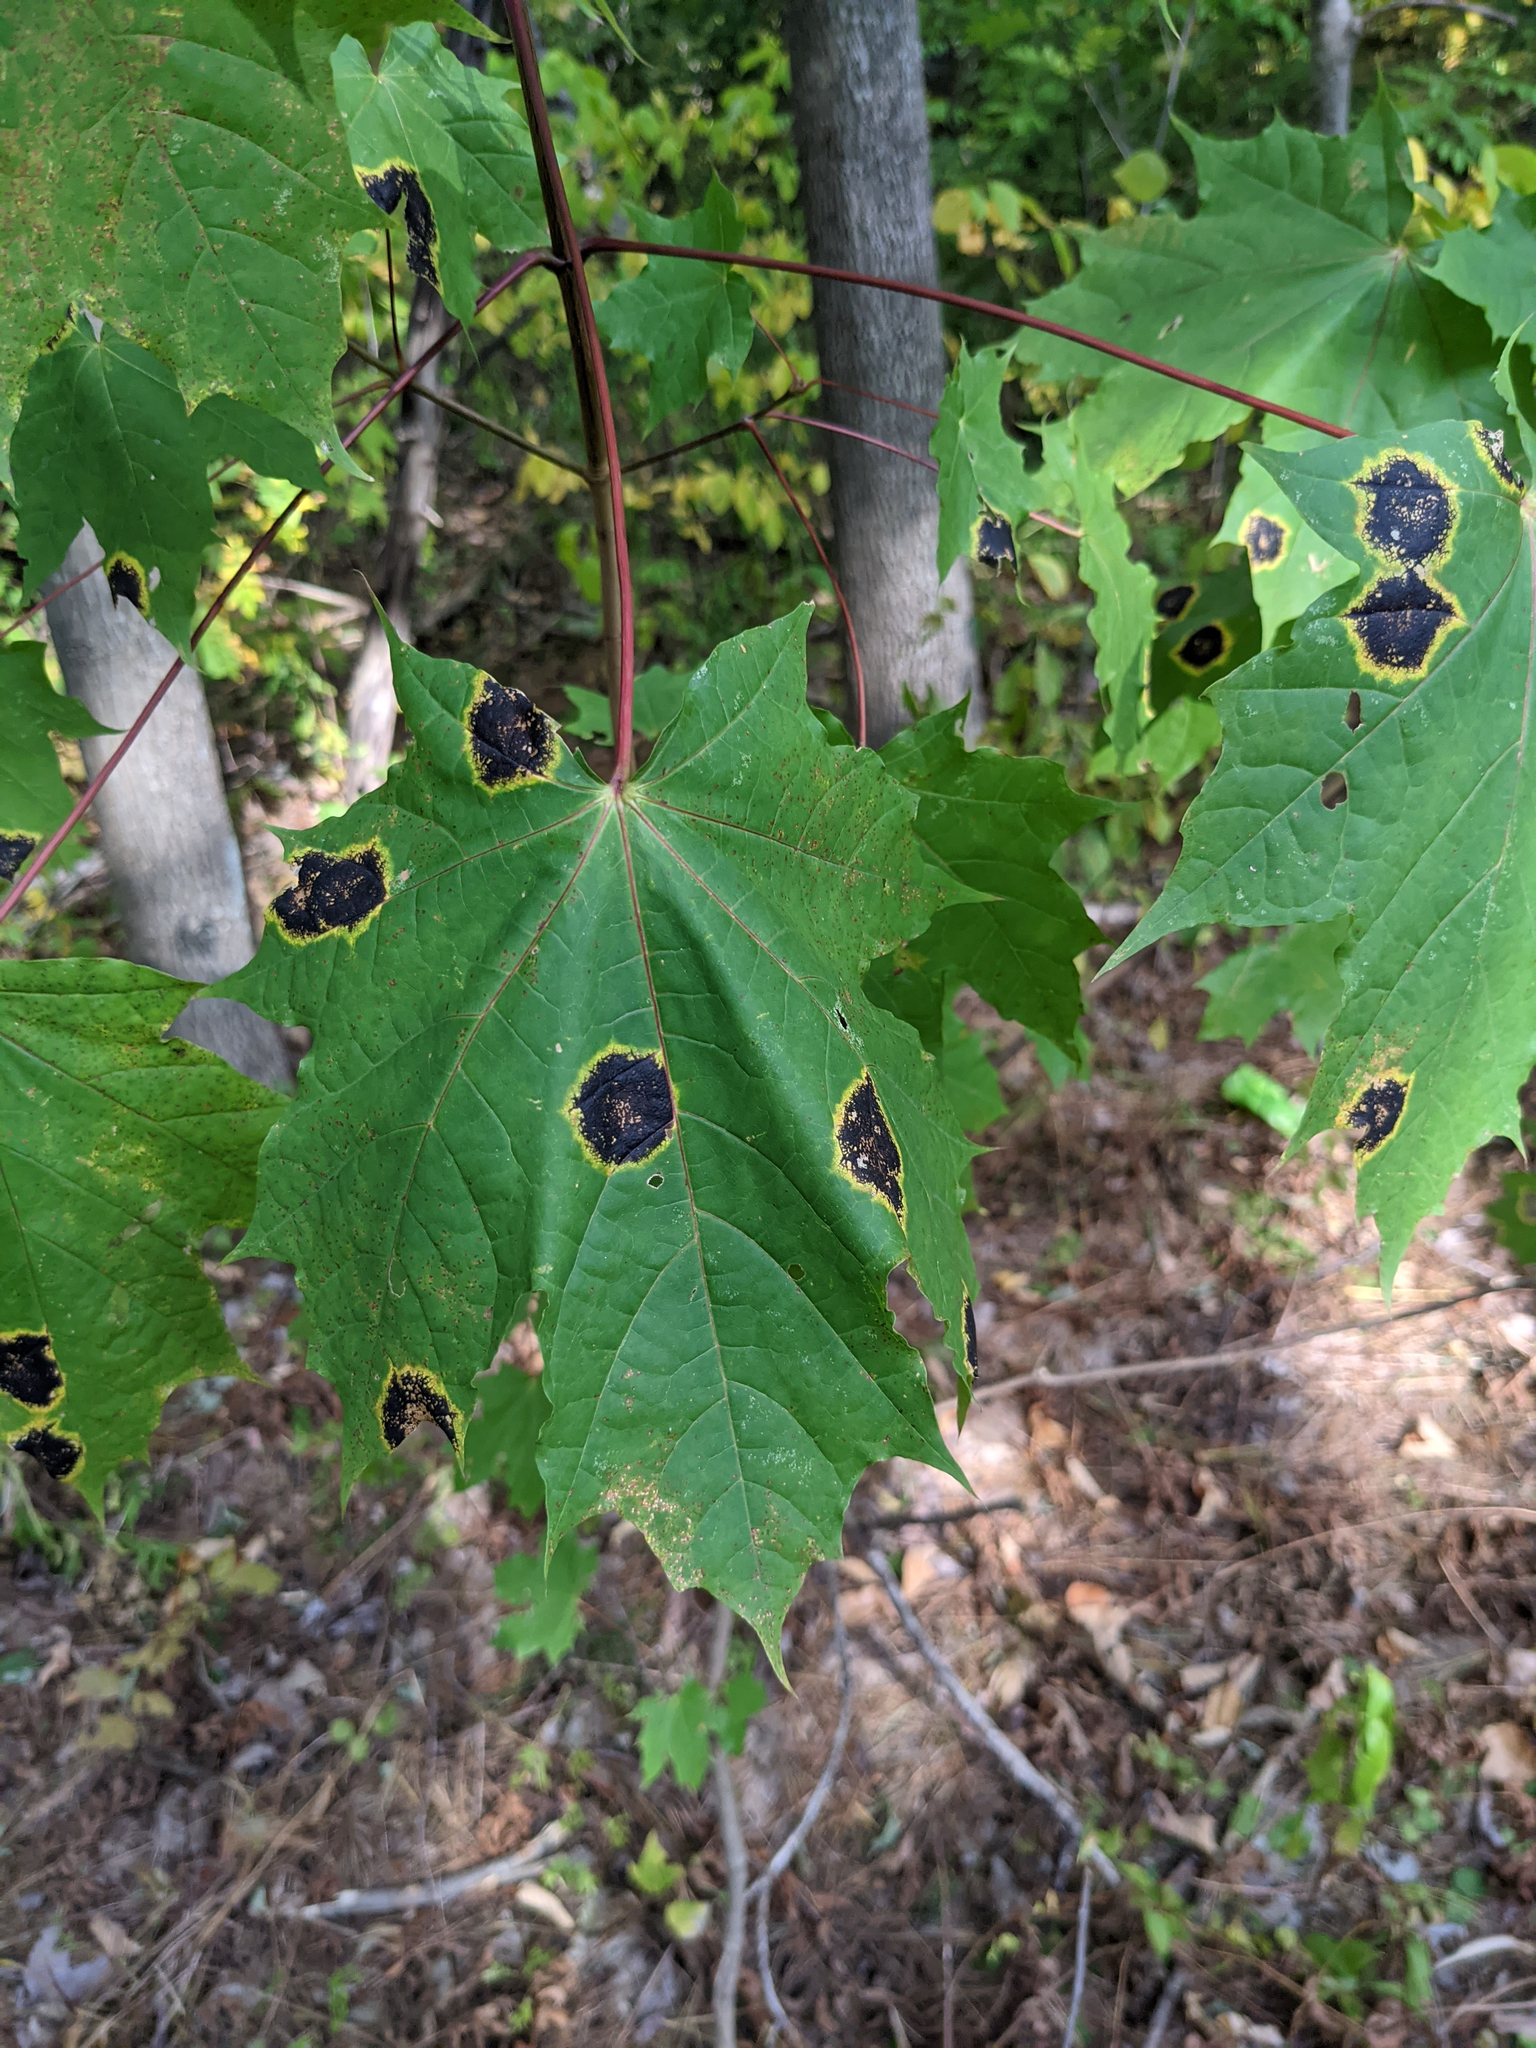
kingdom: Fungi
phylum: Ascomycota
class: Leotiomycetes
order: Rhytismatales
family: Rhytismataceae
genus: Rhytisma
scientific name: Rhytisma acerinum
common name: European tar spot
